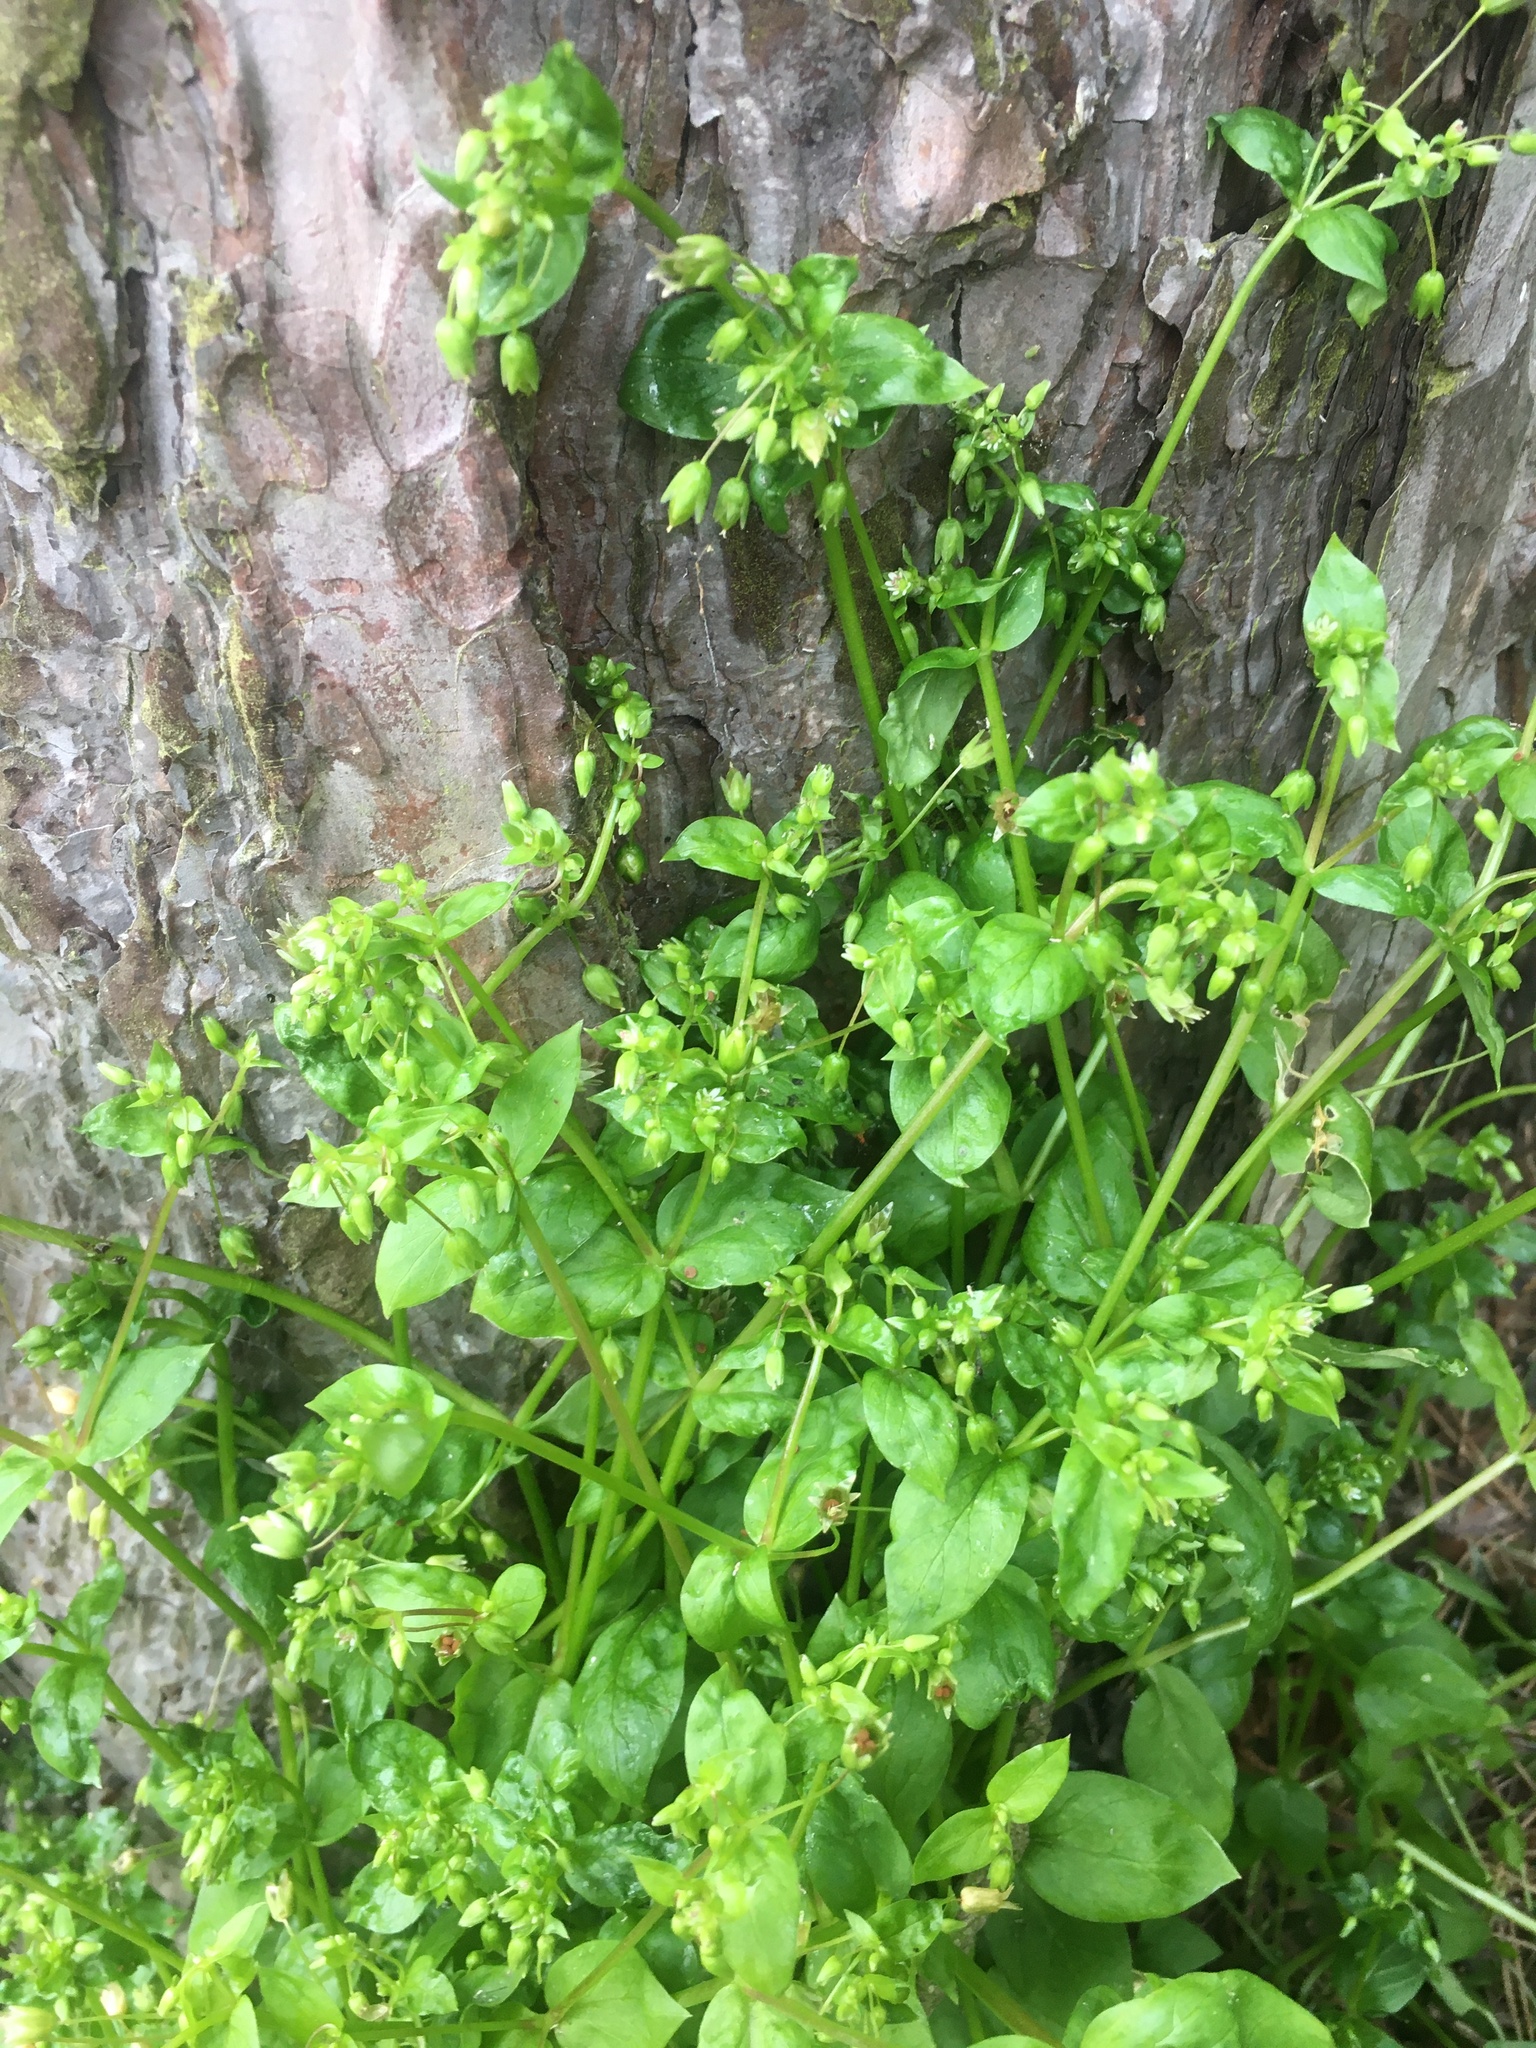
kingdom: Plantae
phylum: Tracheophyta
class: Magnoliopsida
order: Caryophyllales
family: Caryophyllaceae
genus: Stellaria
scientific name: Stellaria media
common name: Common chickweed
